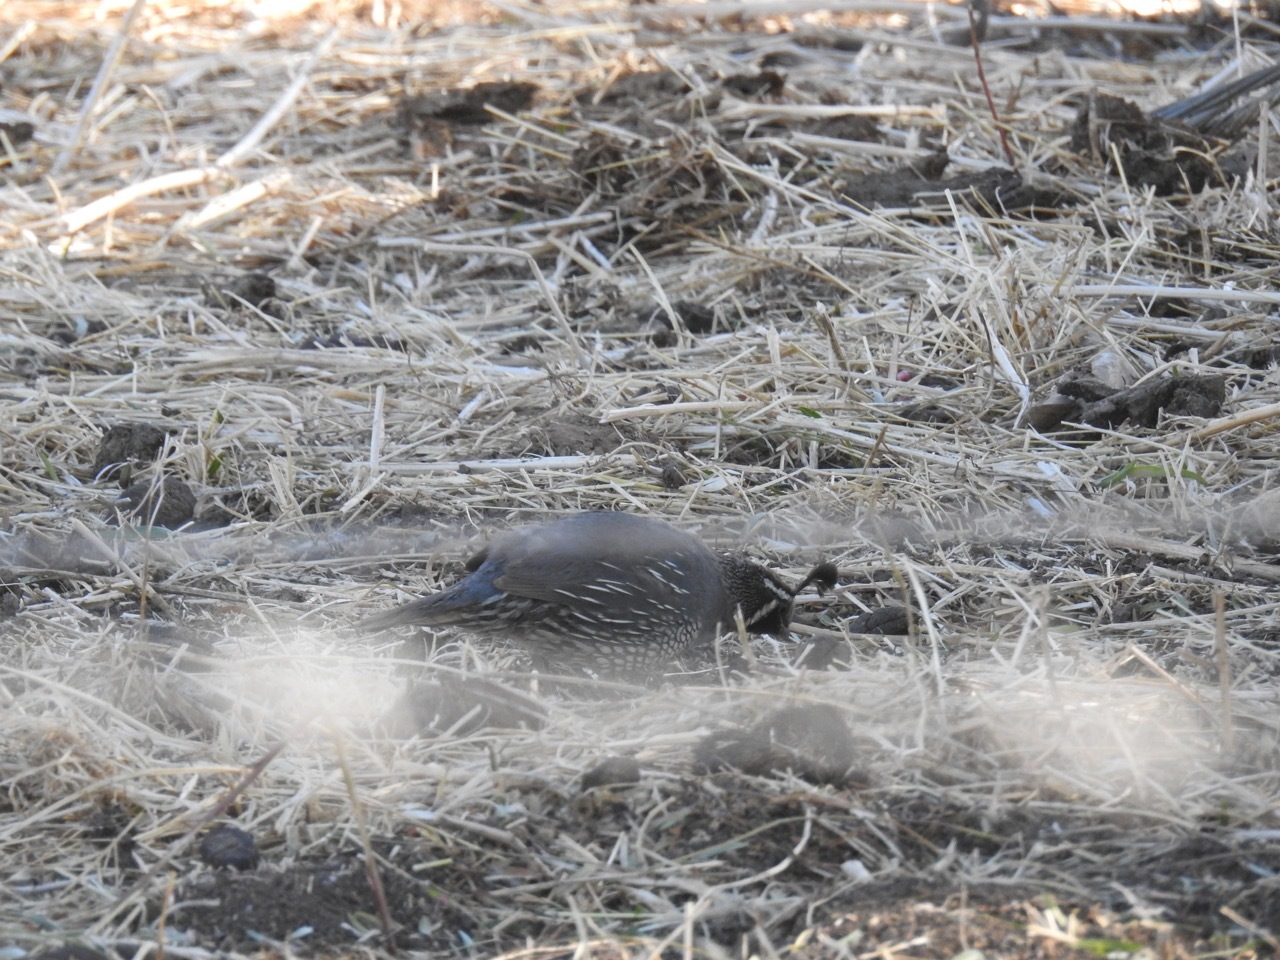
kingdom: Animalia
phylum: Chordata
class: Aves
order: Galliformes
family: Odontophoridae
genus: Callipepla
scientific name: Callipepla californica
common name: California quail
